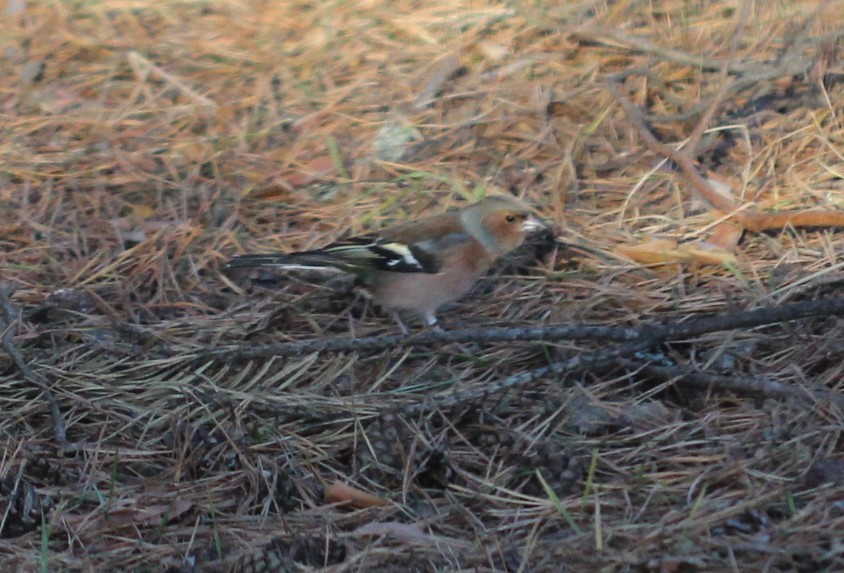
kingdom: Animalia
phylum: Chordata
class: Aves
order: Passeriformes
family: Fringillidae
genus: Fringilla
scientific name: Fringilla coelebs
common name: Common chaffinch
